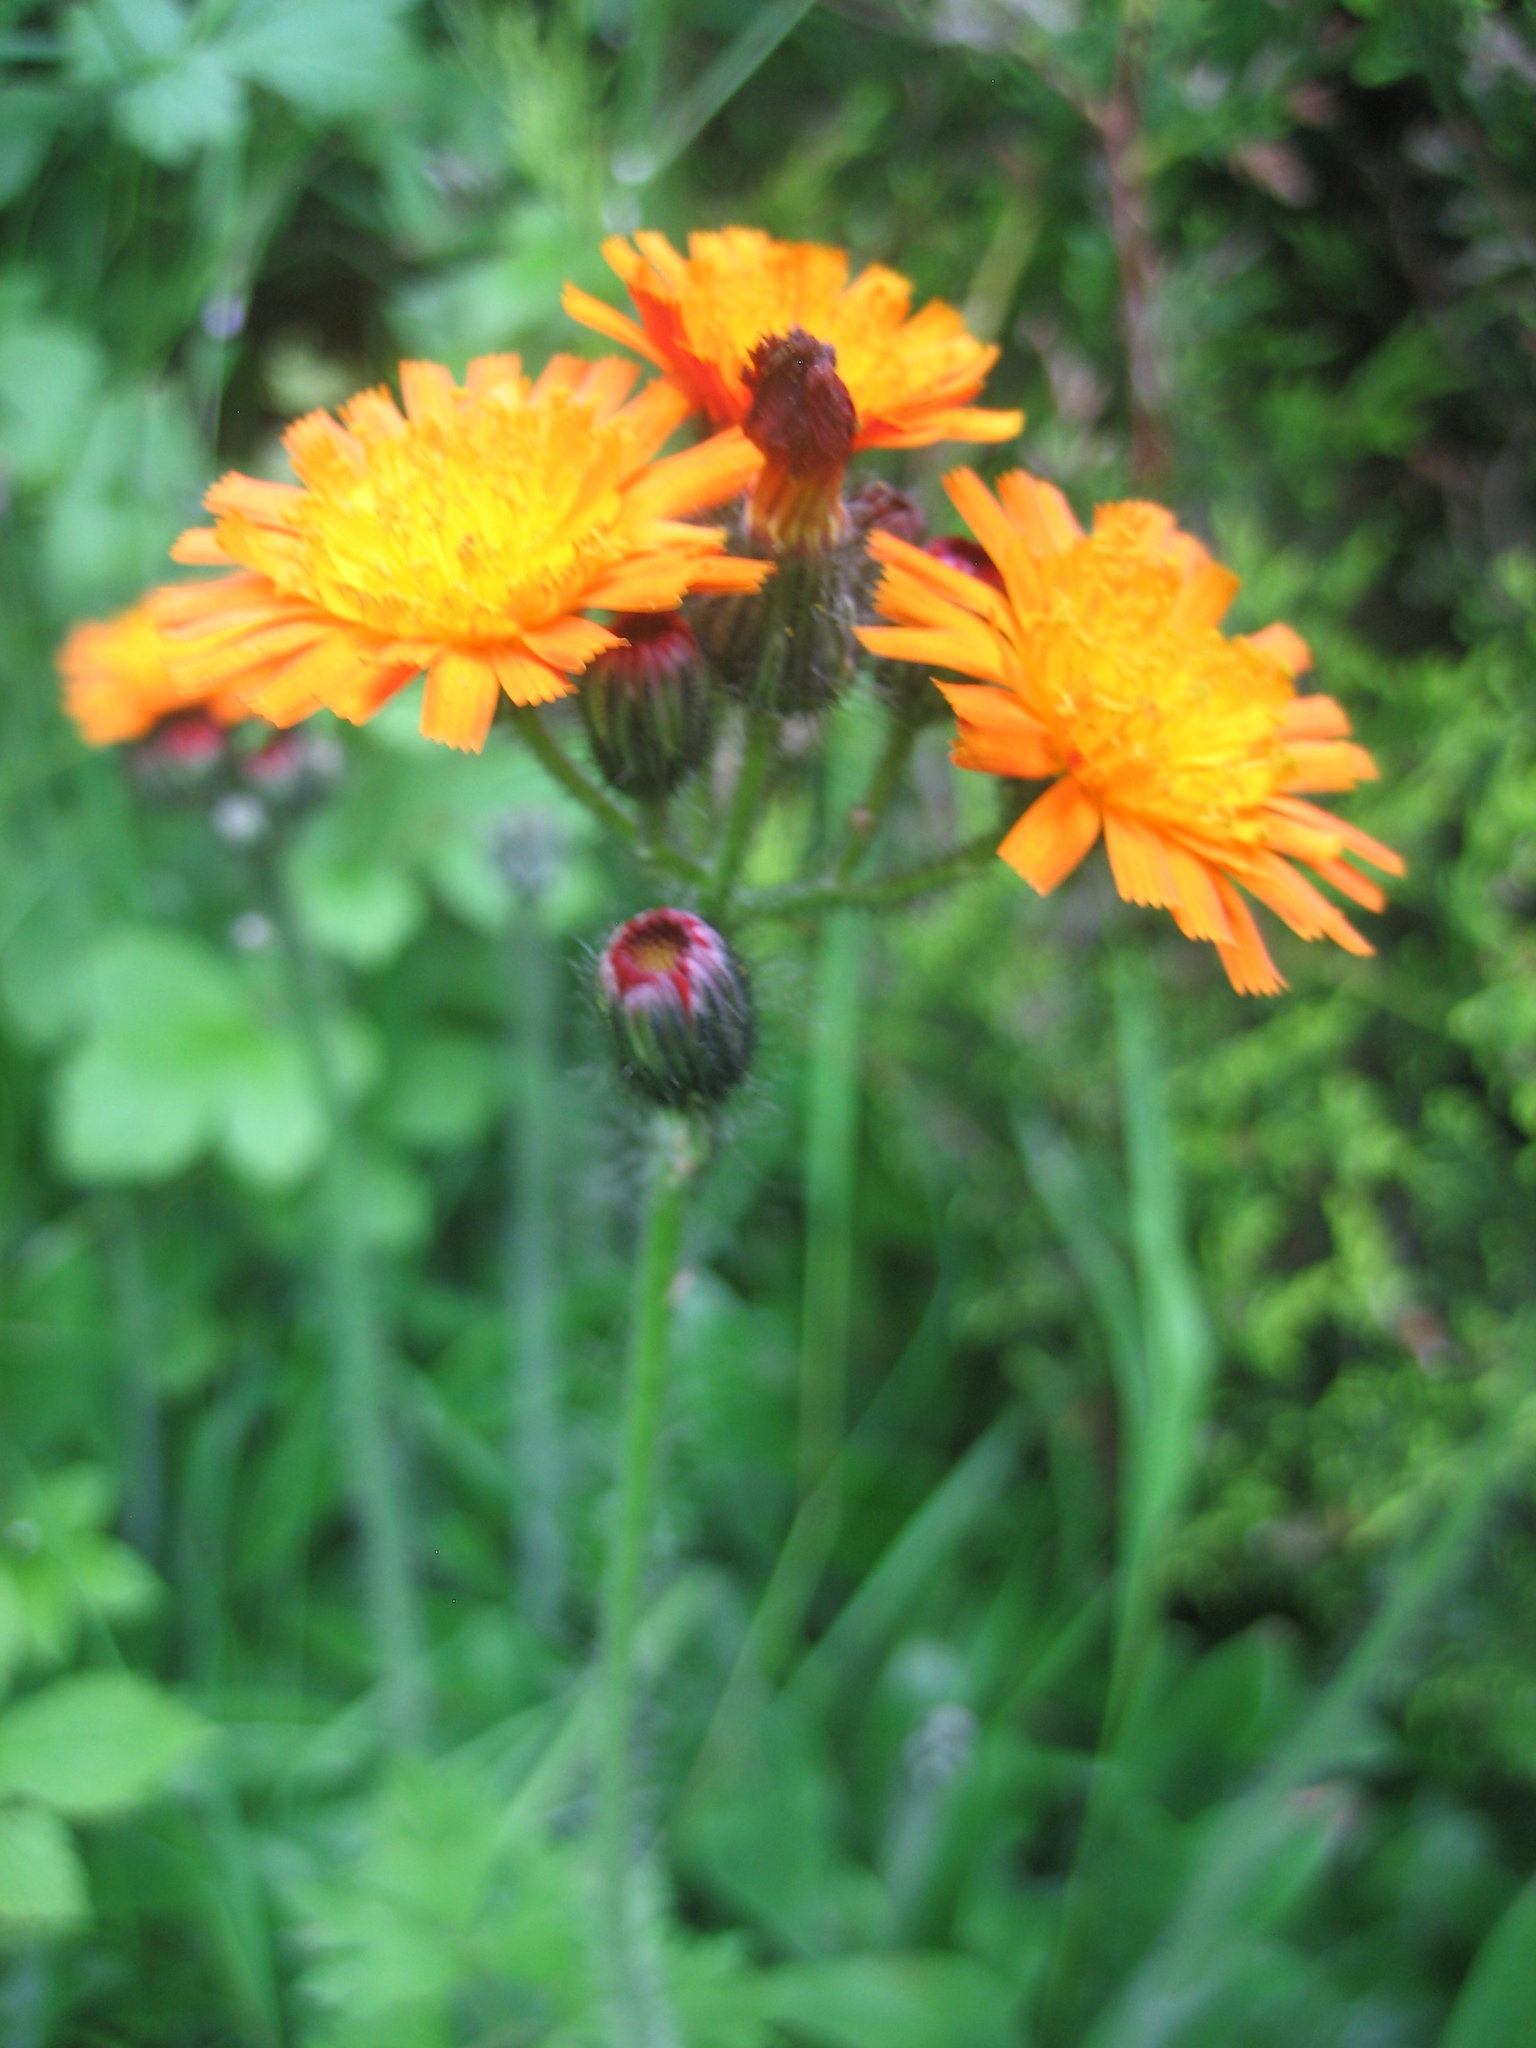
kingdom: Plantae
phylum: Tracheophyta
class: Magnoliopsida
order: Asterales
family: Asteraceae
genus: Pilosella
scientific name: Pilosella aurantiaca
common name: Fox-and-cubs
